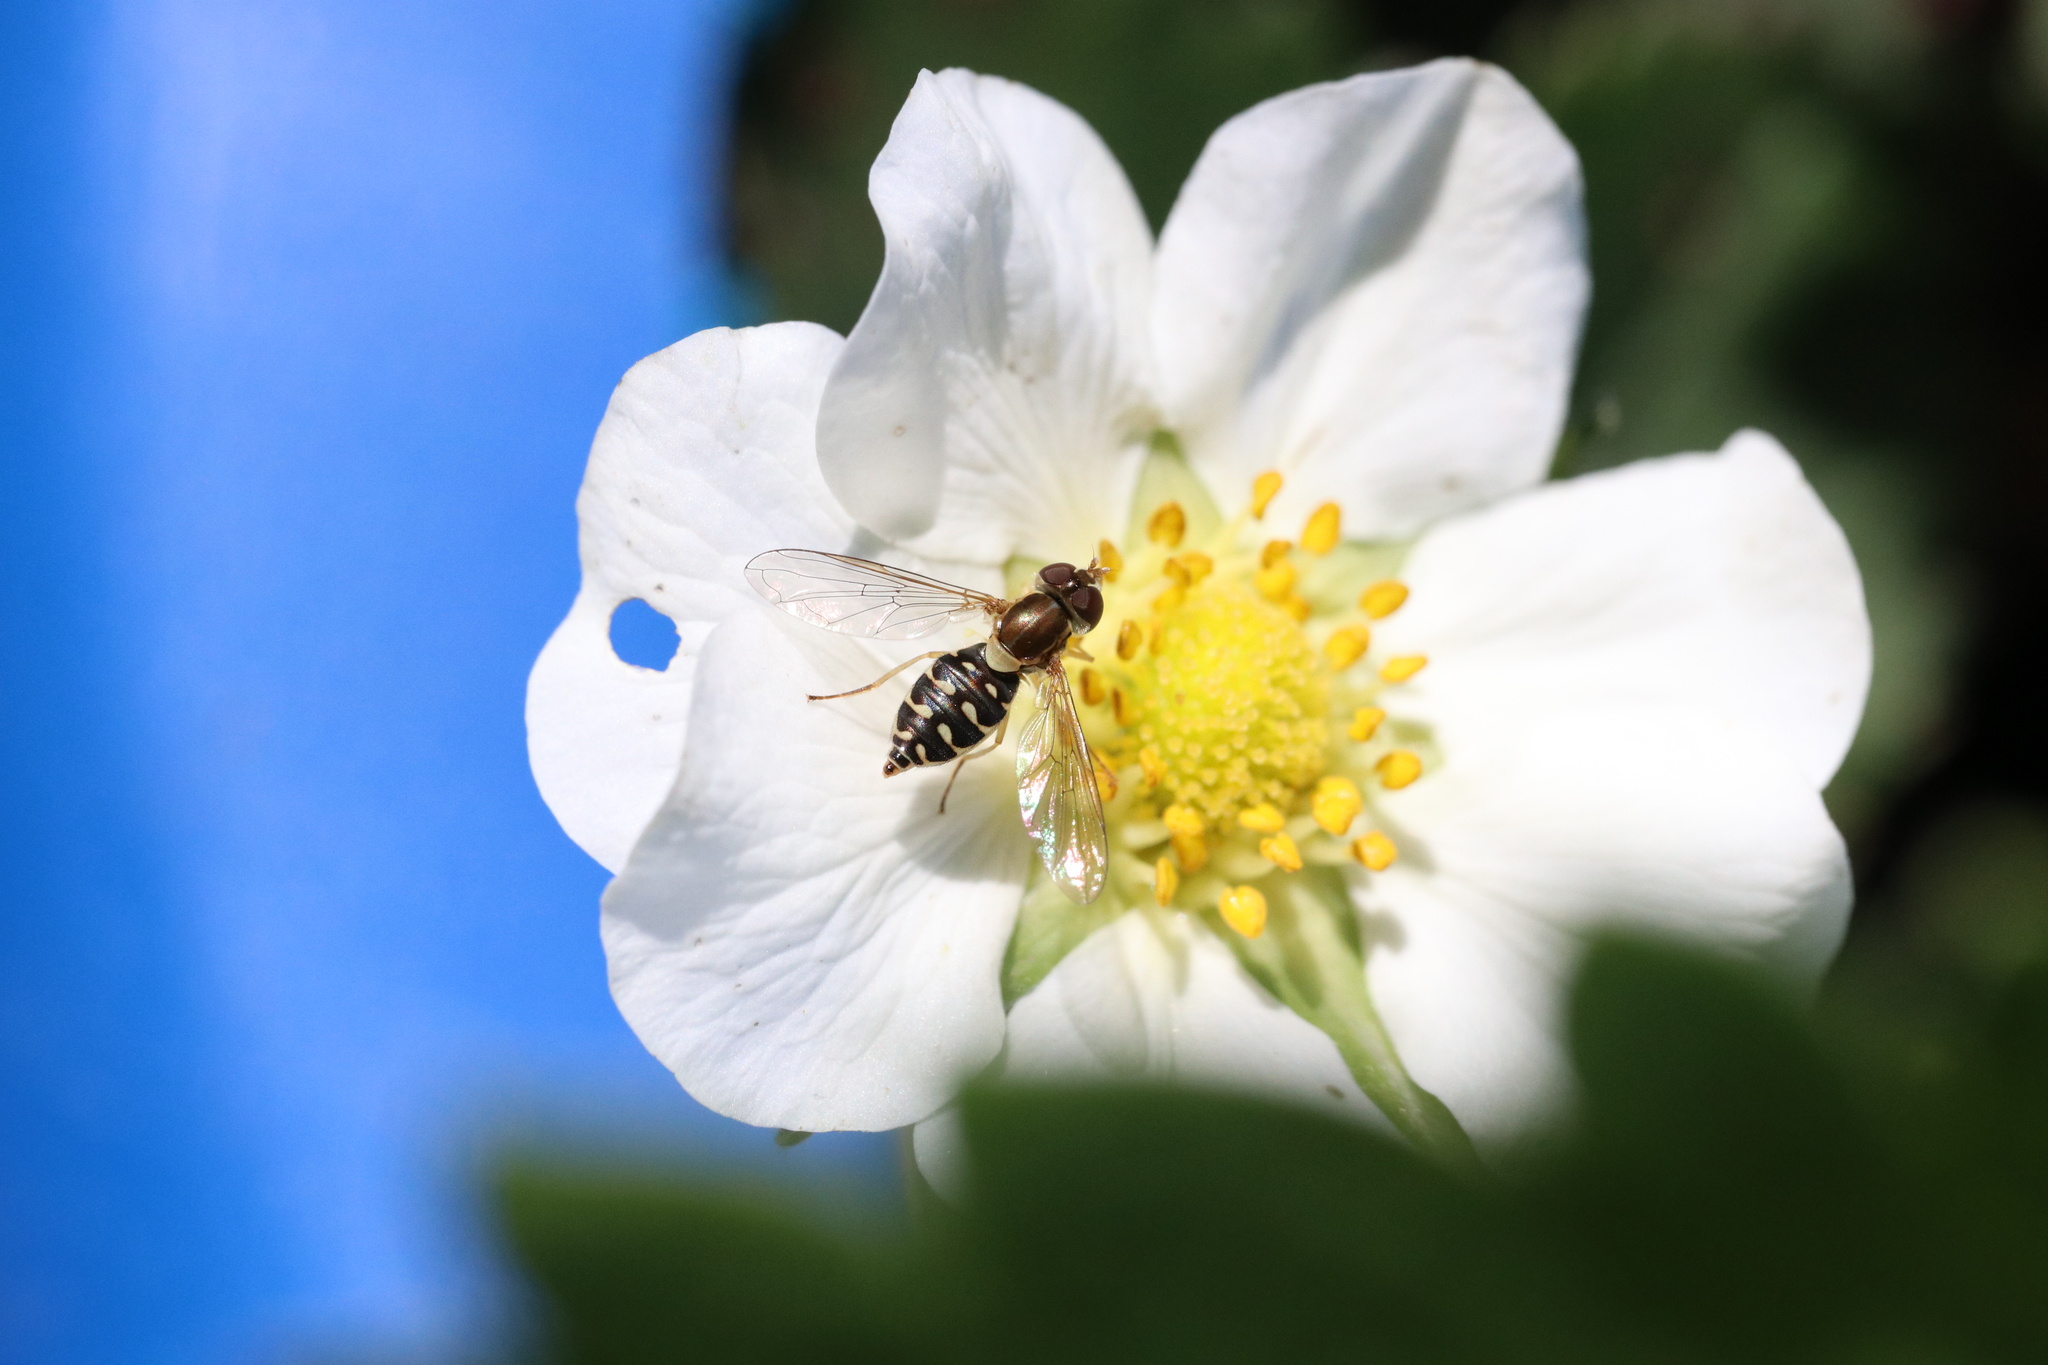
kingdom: Animalia
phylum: Arthropoda
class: Insecta
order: Diptera
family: Syrphidae
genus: Toxomerus
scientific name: Toxomerus vertebratus
